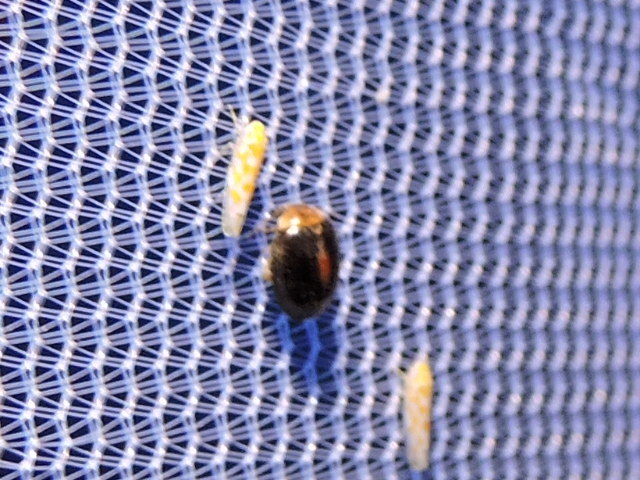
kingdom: Animalia
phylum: Arthropoda
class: Insecta
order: Coleoptera
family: Scirtidae
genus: Scirtes
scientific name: Scirtes orbiculatus
